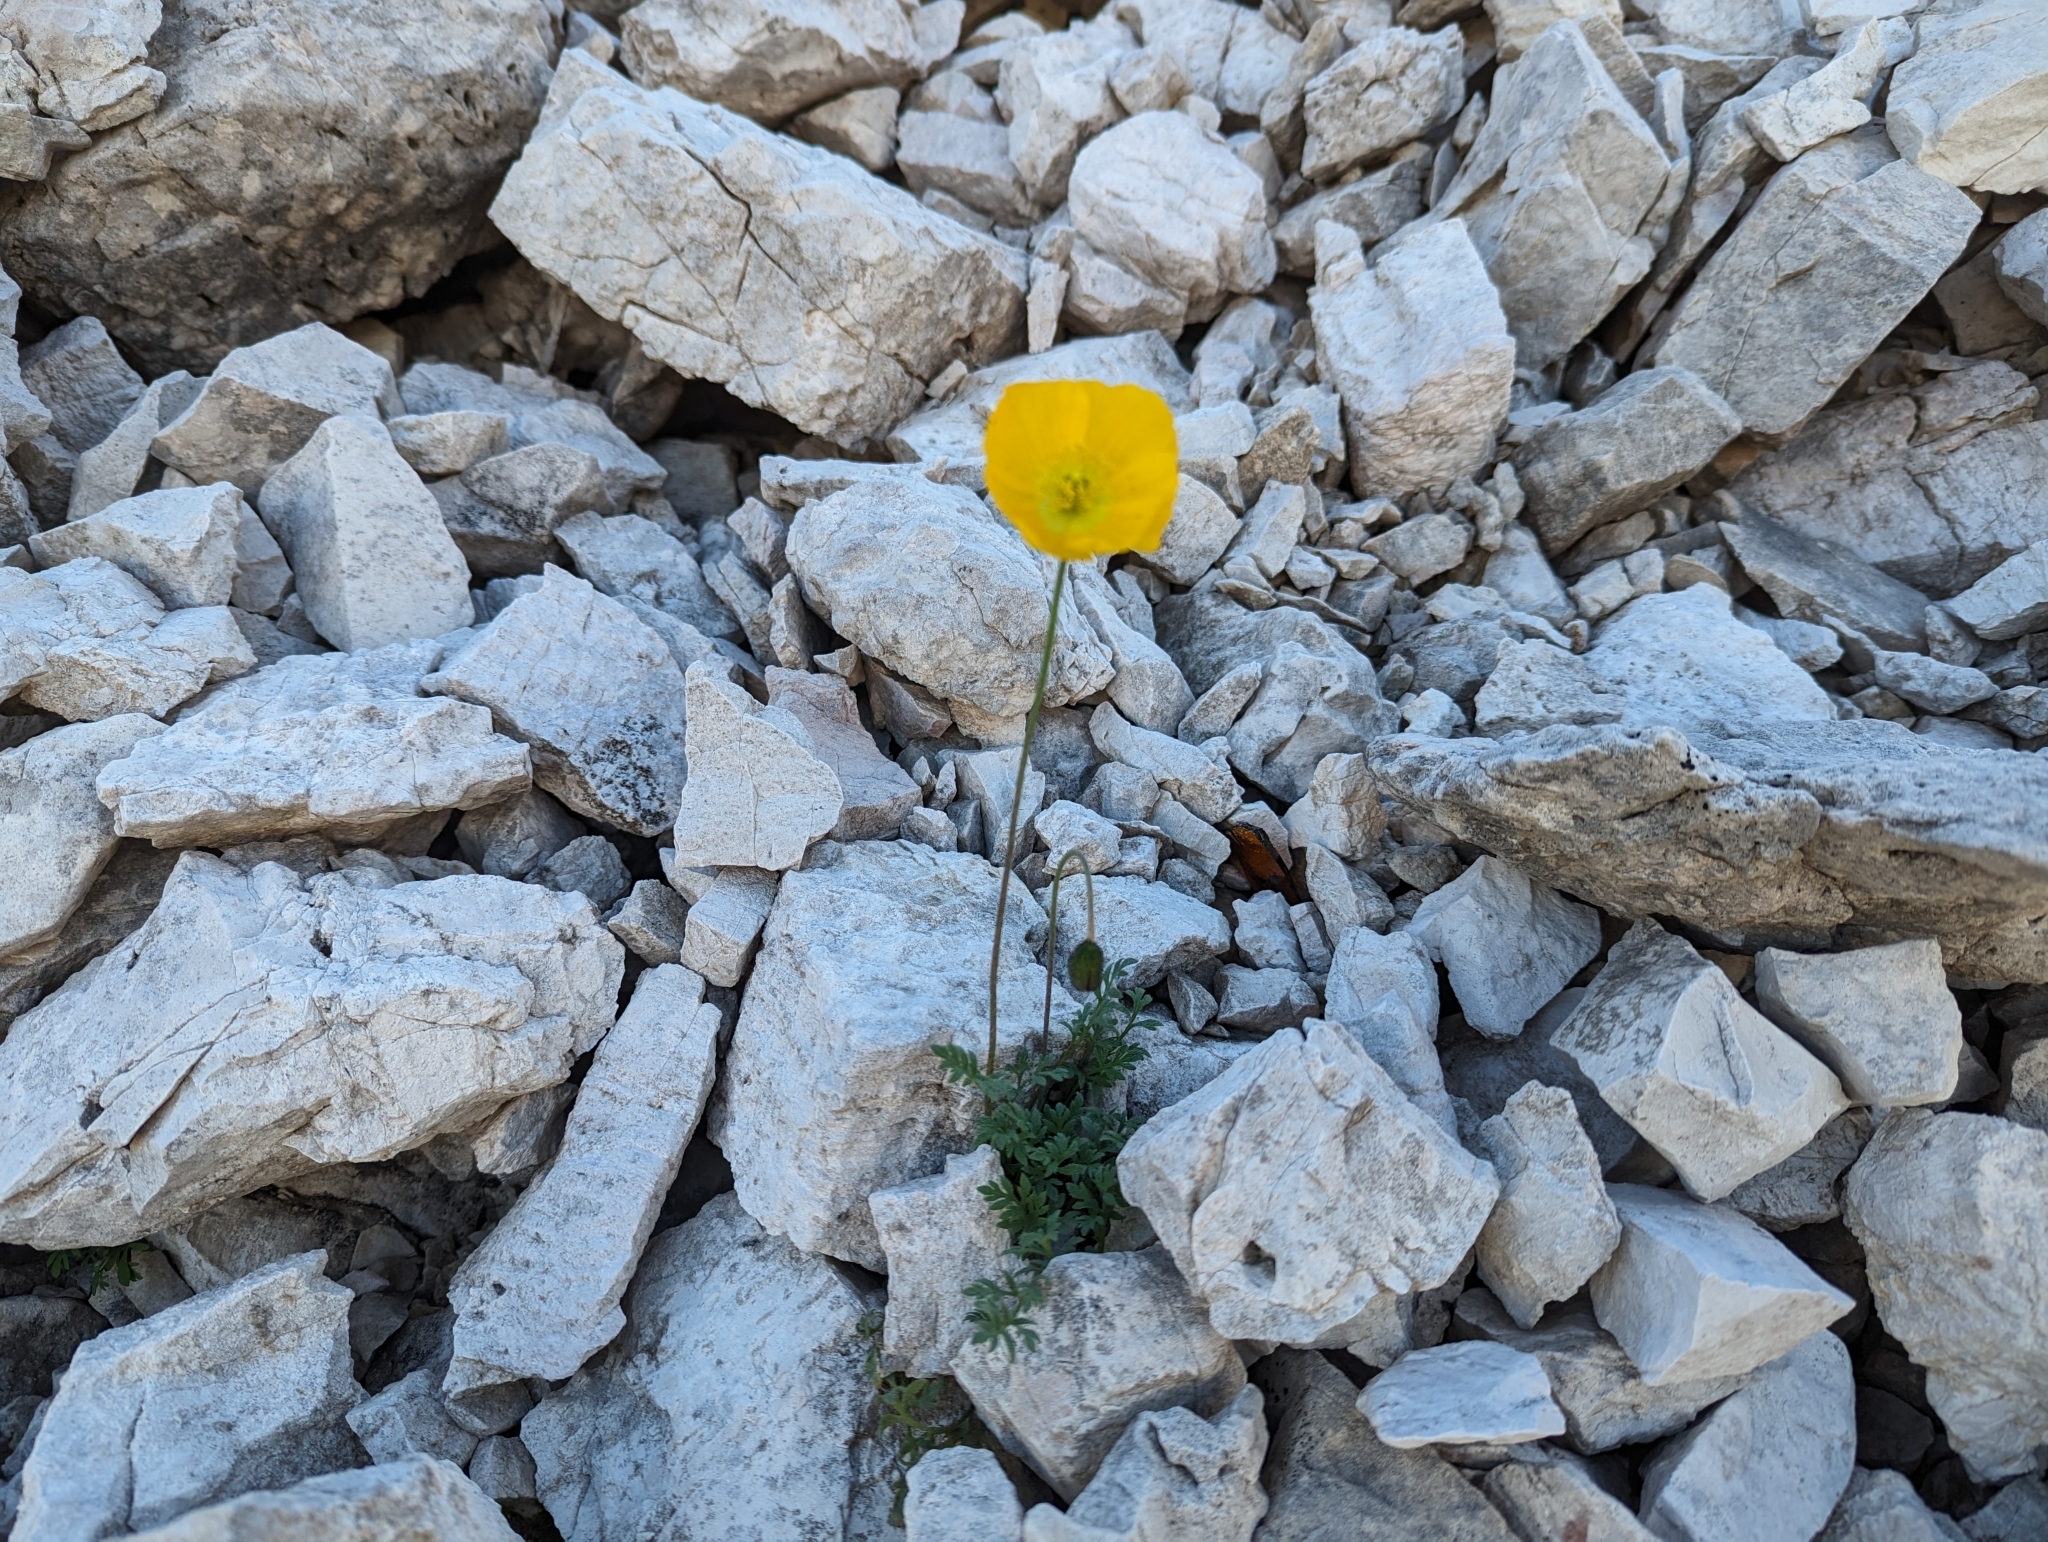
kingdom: Plantae
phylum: Tracheophyta
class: Magnoliopsida
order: Ranunculales
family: Papaveraceae
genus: Papaver
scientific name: Papaver alpinum
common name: Austrian poppy
